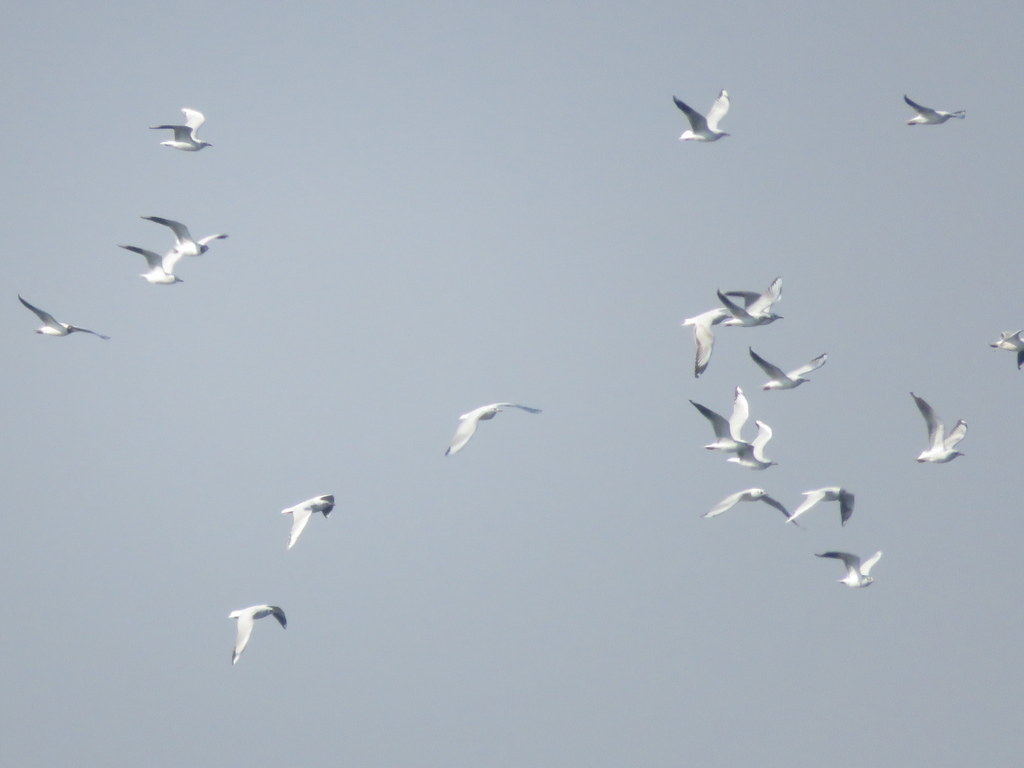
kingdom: Animalia
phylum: Chordata
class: Aves
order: Charadriiformes
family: Laridae
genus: Chroicocephalus
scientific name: Chroicocephalus maculipennis
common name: Brown-hooded gull
